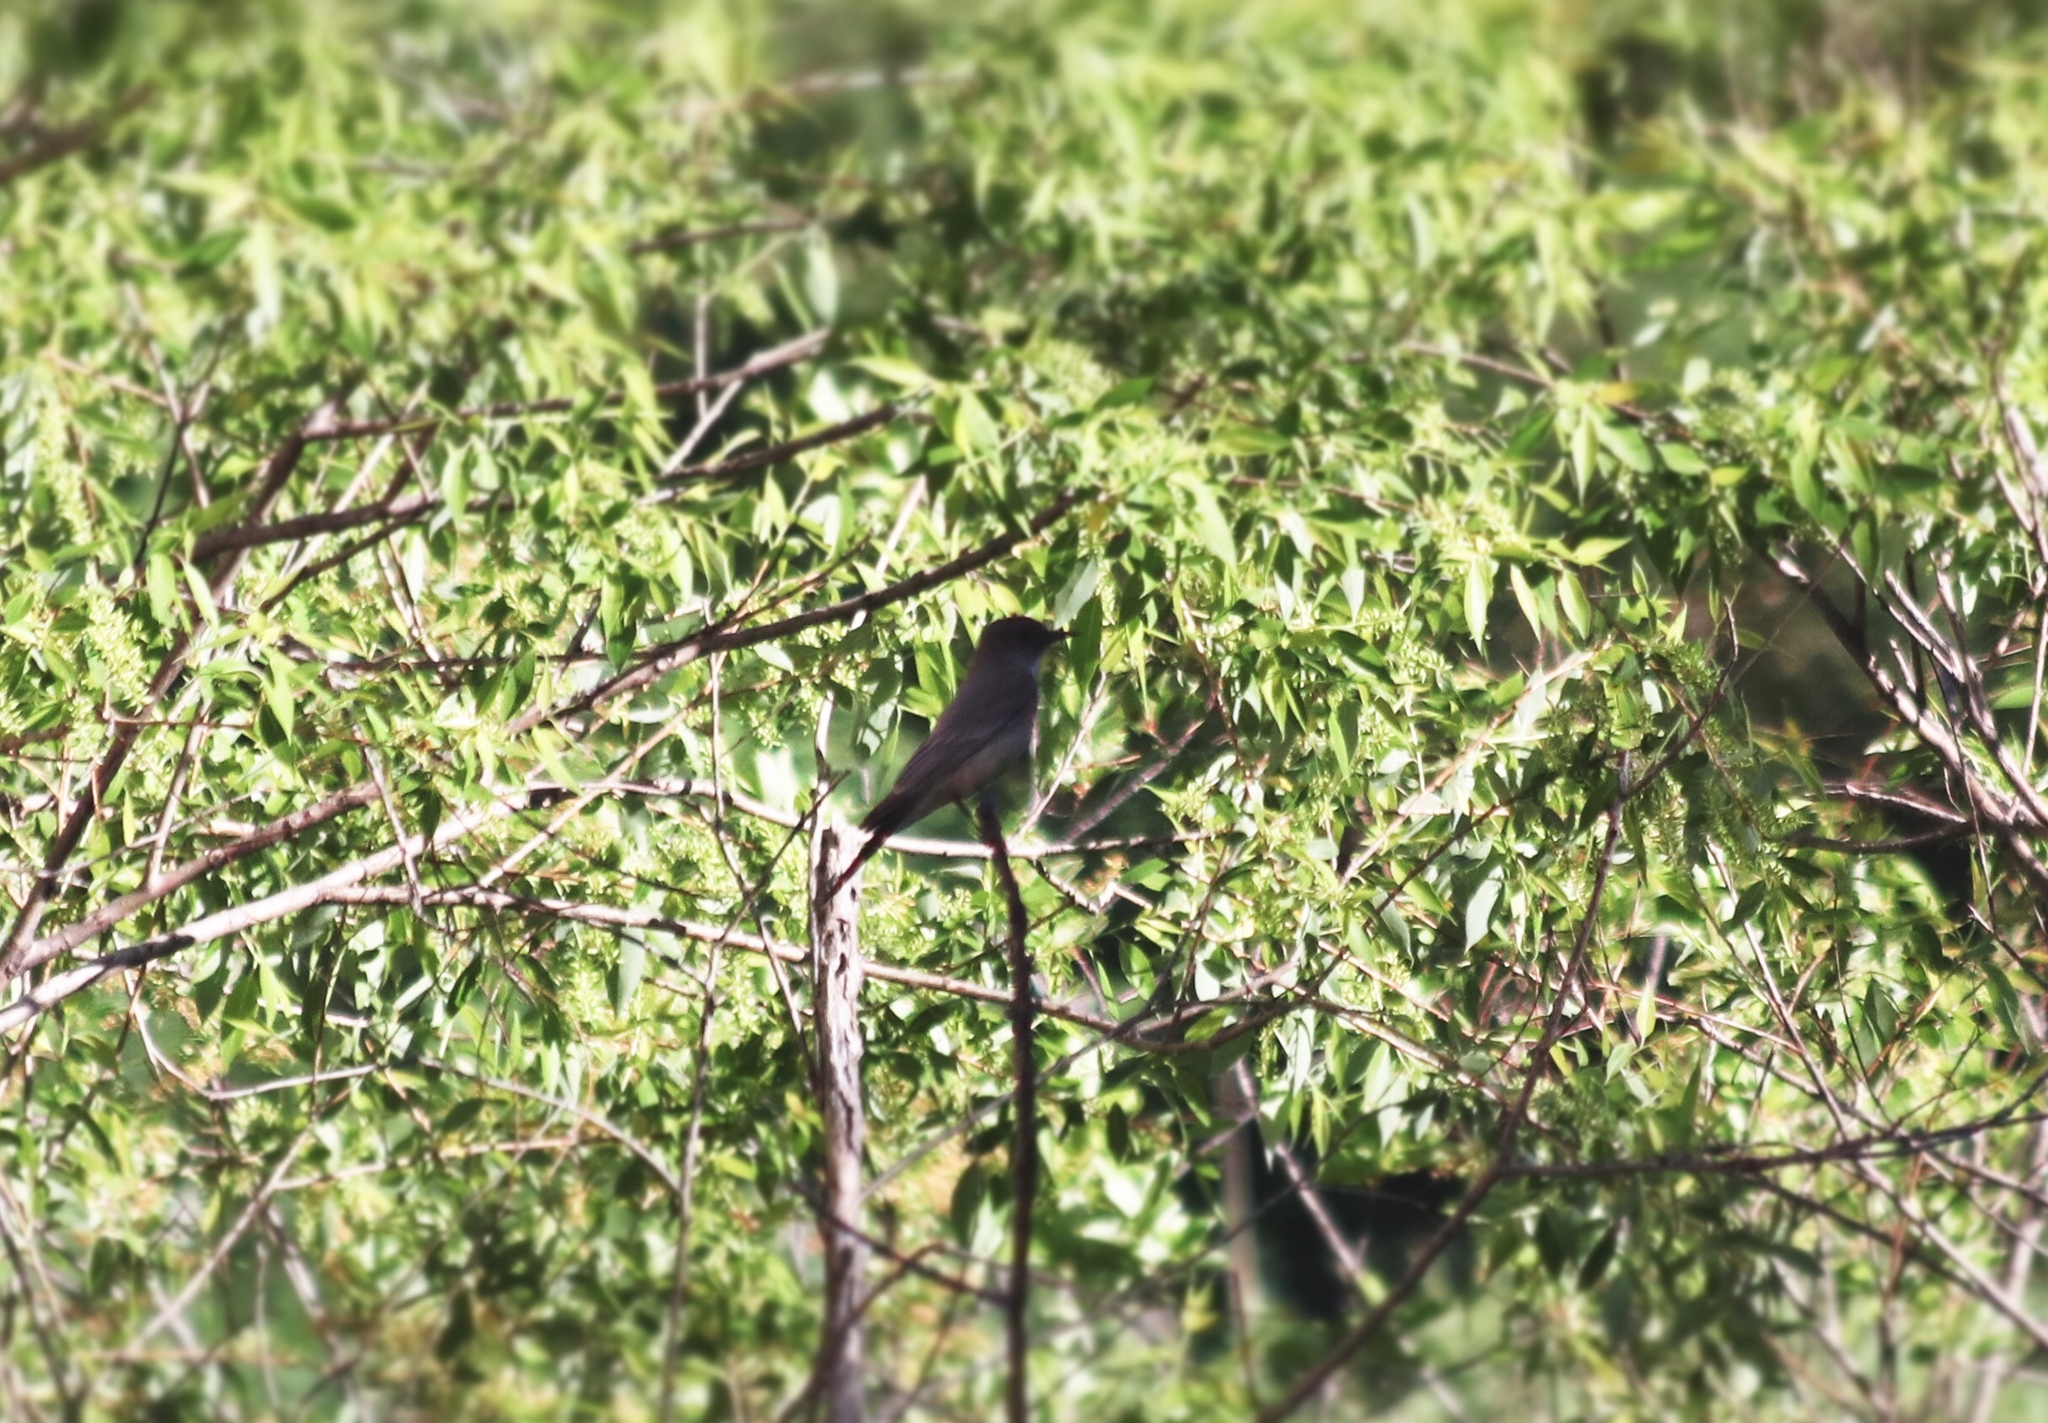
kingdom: Animalia
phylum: Chordata
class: Aves
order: Passeriformes
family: Tyrannidae
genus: Sayornis
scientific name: Sayornis saya
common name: Say's phoebe
